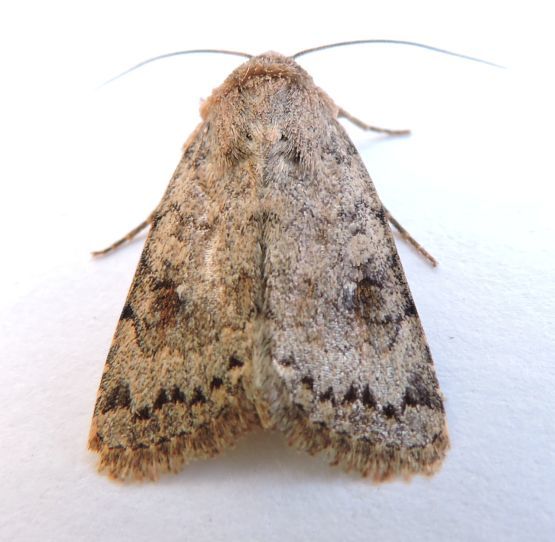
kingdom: Animalia
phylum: Arthropoda
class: Insecta
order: Lepidoptera
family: Noctuidae
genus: Nudorthodes
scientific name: Nudorthodes molino
